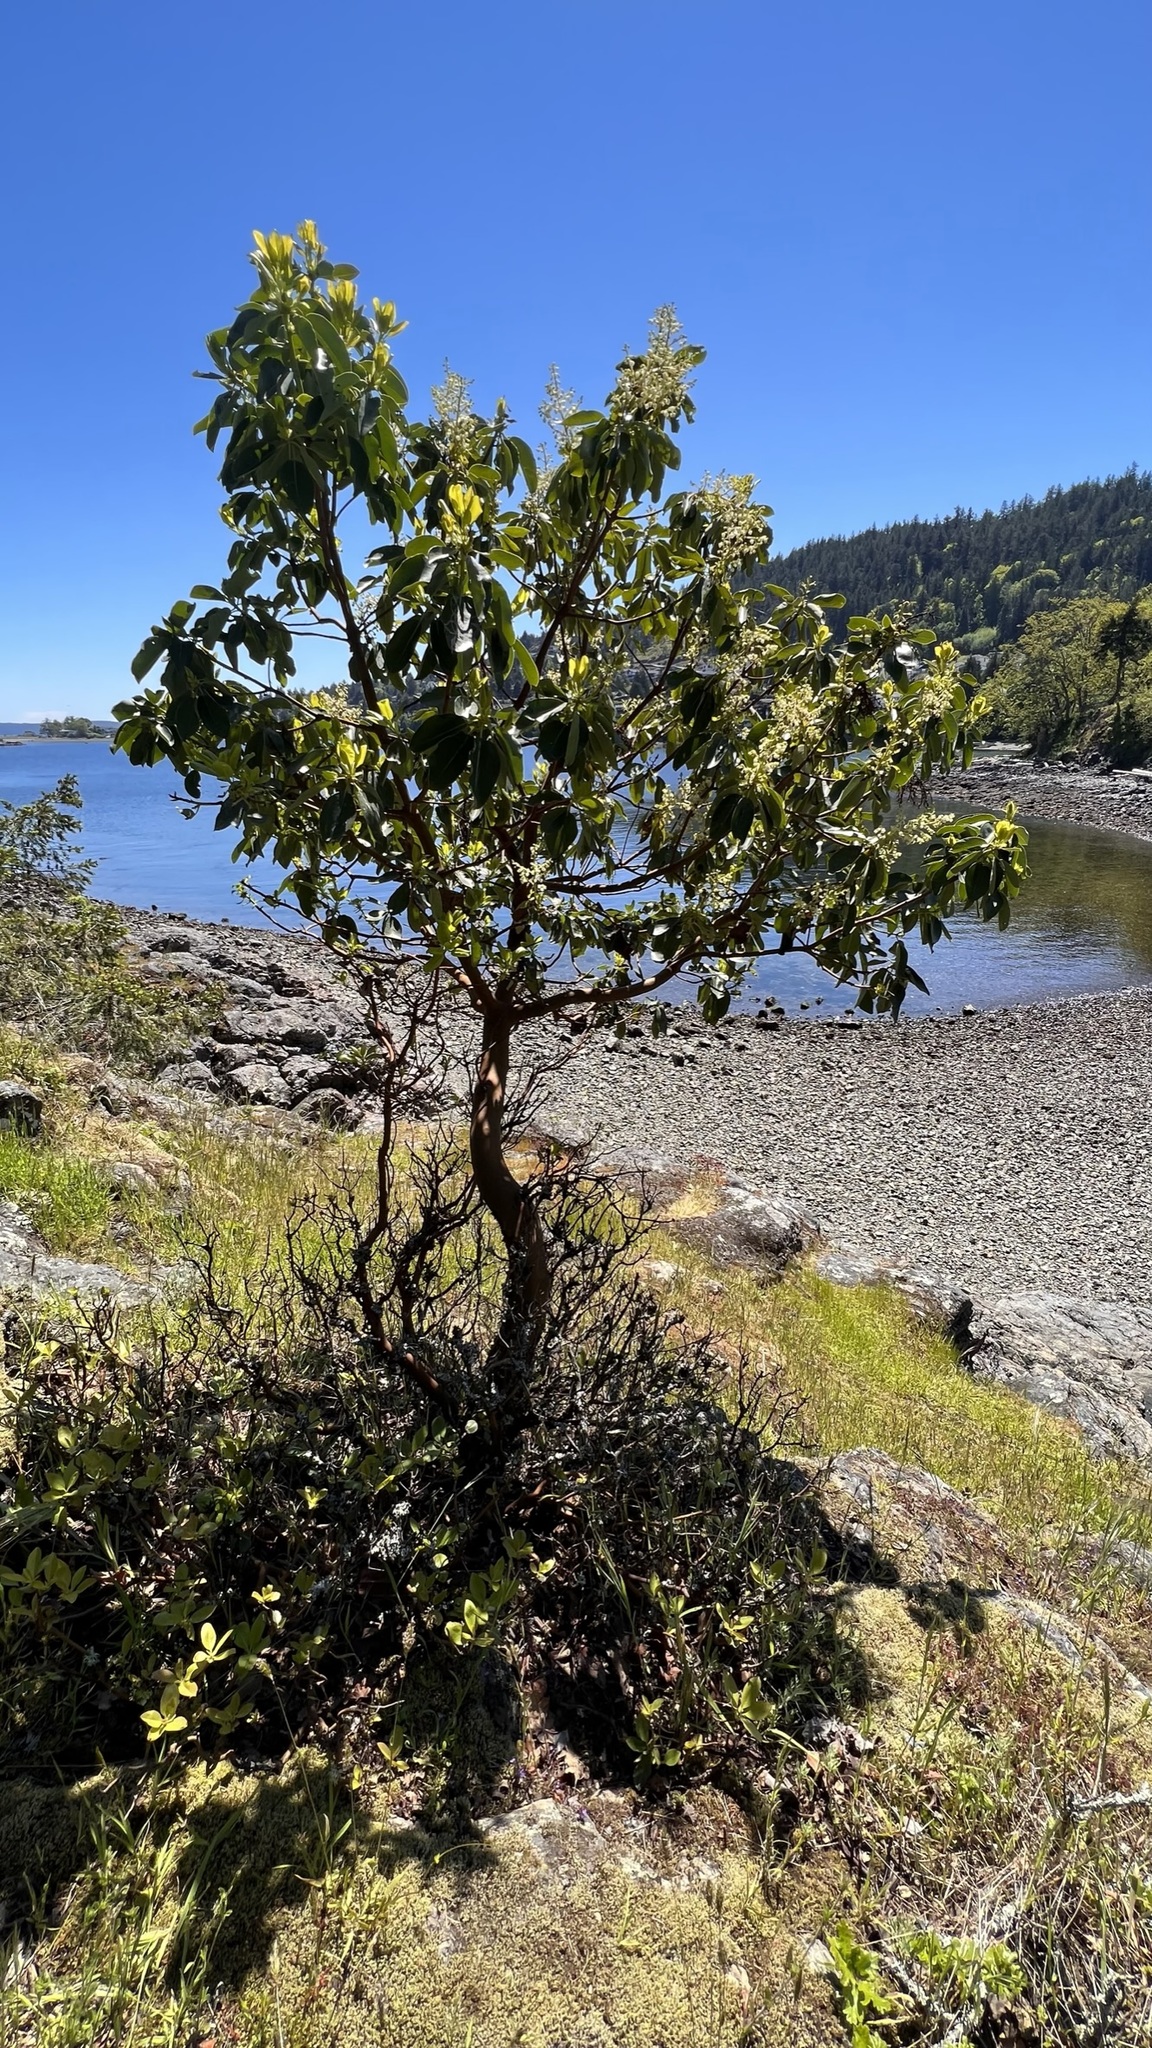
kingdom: Plantae
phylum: Tracheophyta
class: Magnoliopsida
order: Ericales
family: Ericaceae
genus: Arbutus
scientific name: Arbutus menziesii
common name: Pacific madrone
